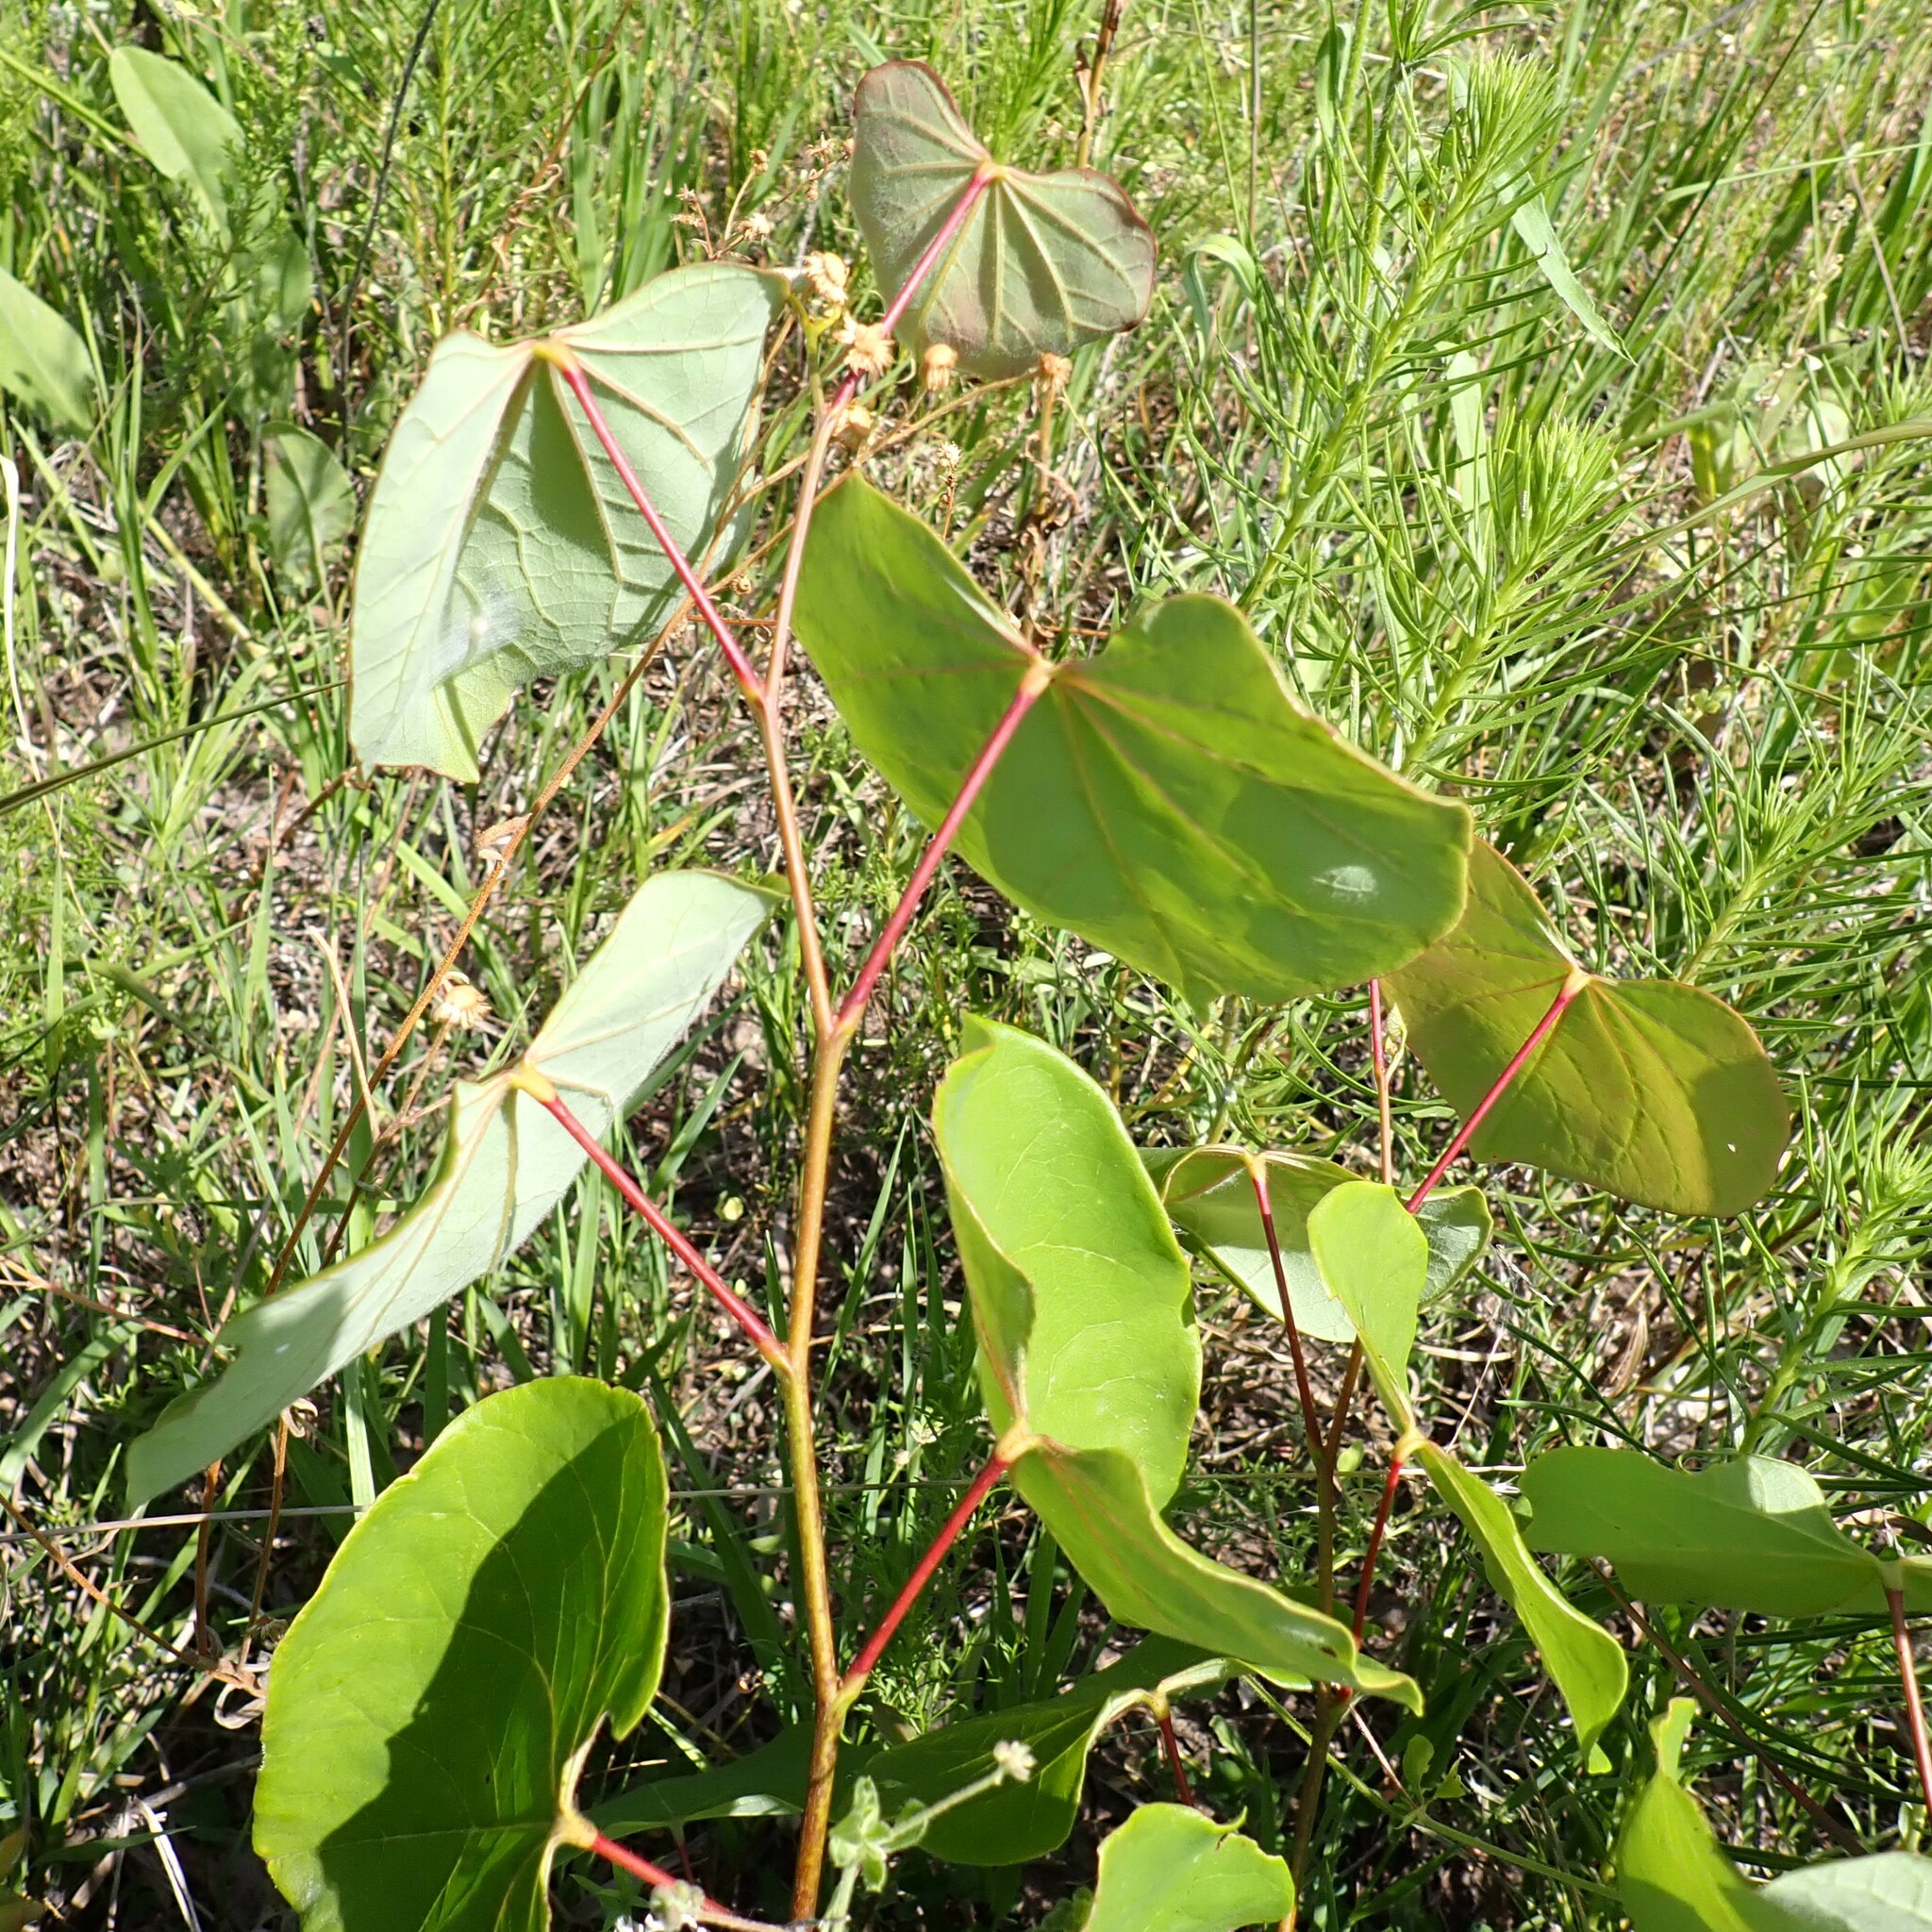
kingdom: Plantae
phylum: Tracheophyta
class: Magnoliopsida
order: Malpighiales
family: Salicaceae
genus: Populus
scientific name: Populus deltoides
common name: Eastern cottonwood
